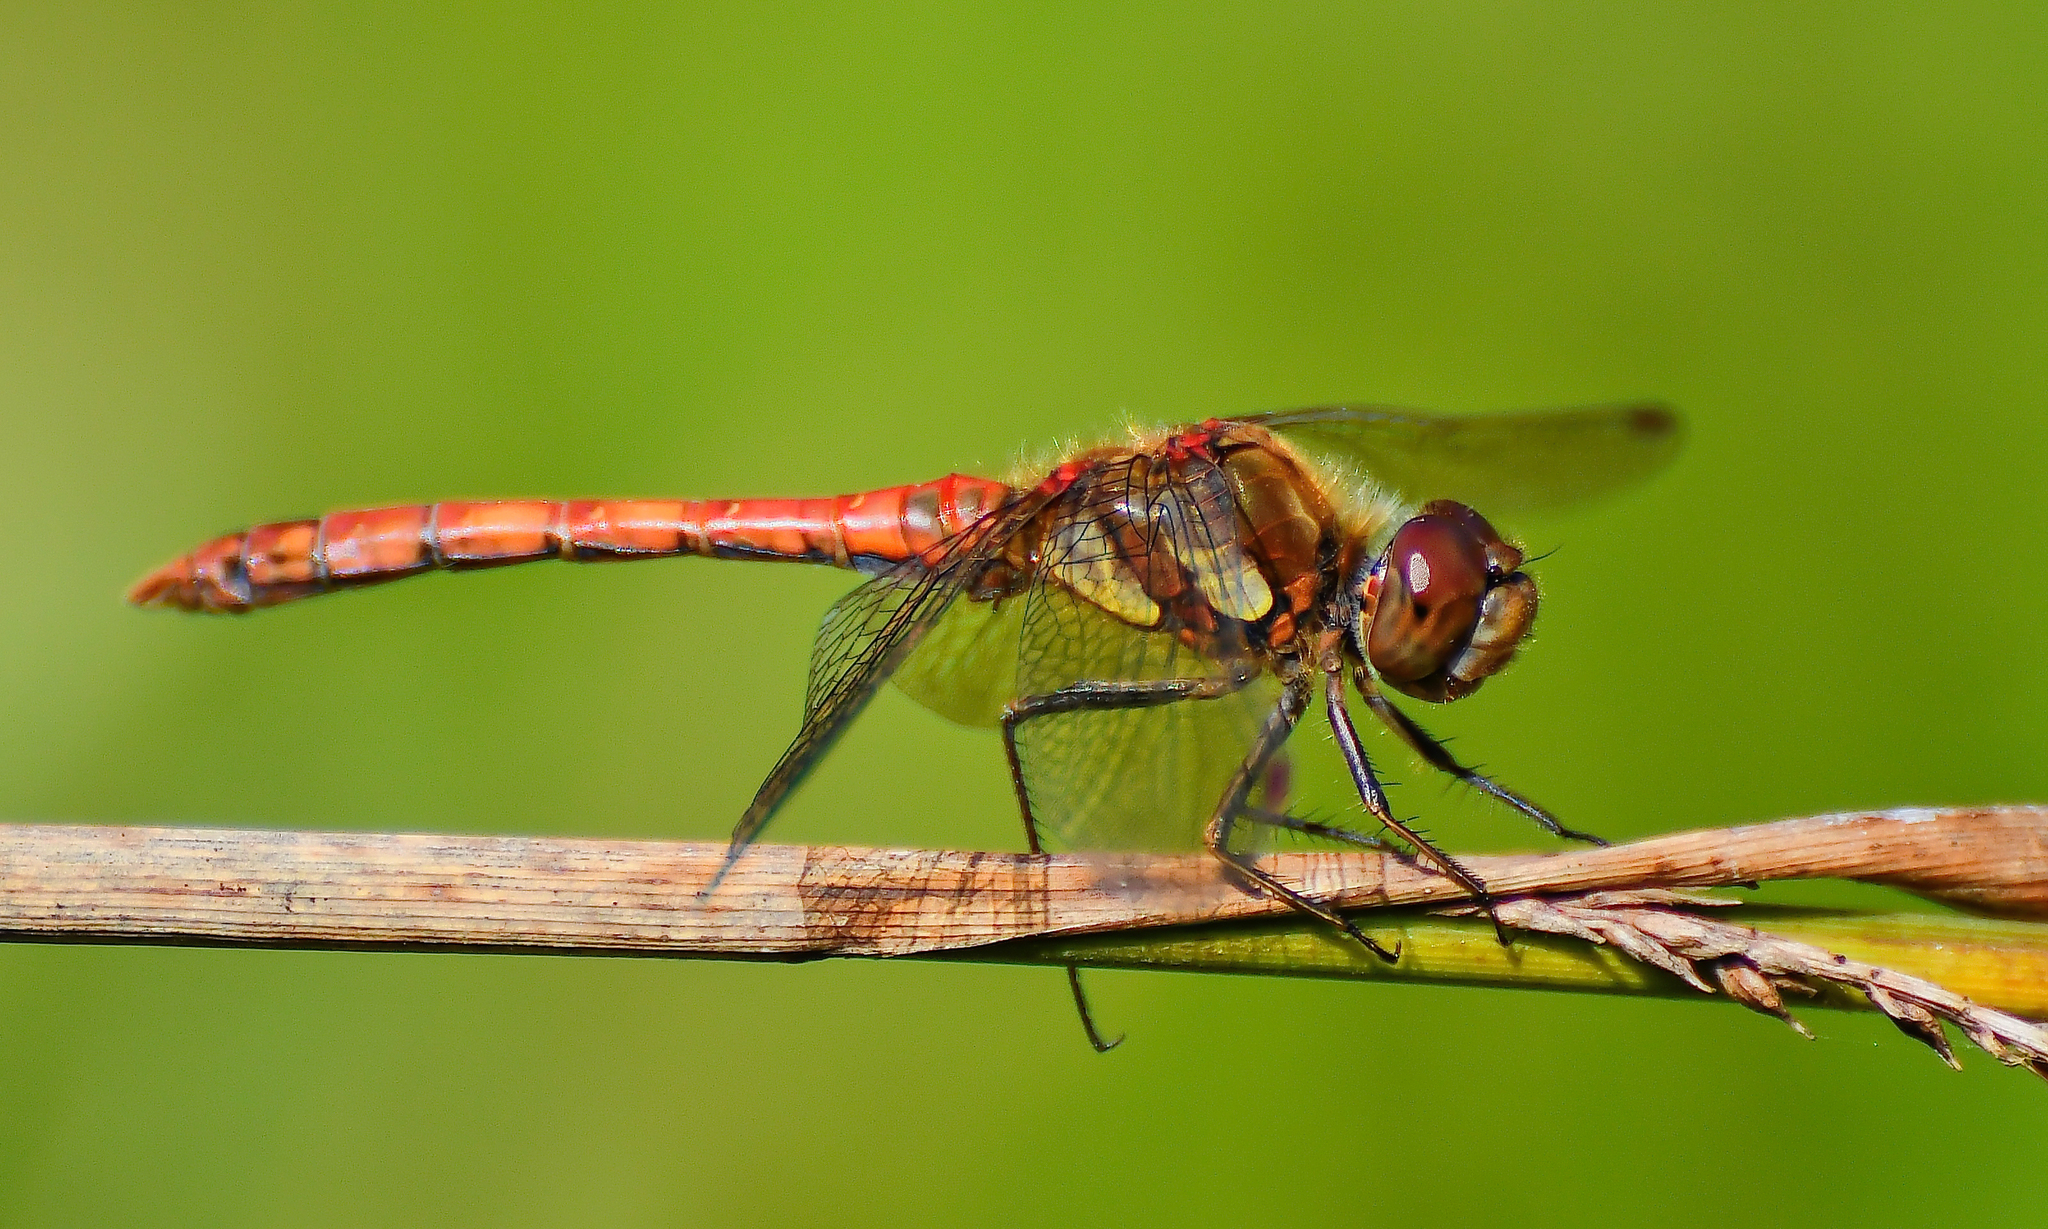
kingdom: Animalia
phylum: Arthropoda
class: Insecta
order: Odonata
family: Libellulidae
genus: Sympetrum
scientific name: Sympetrum striolatum
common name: Common darter
